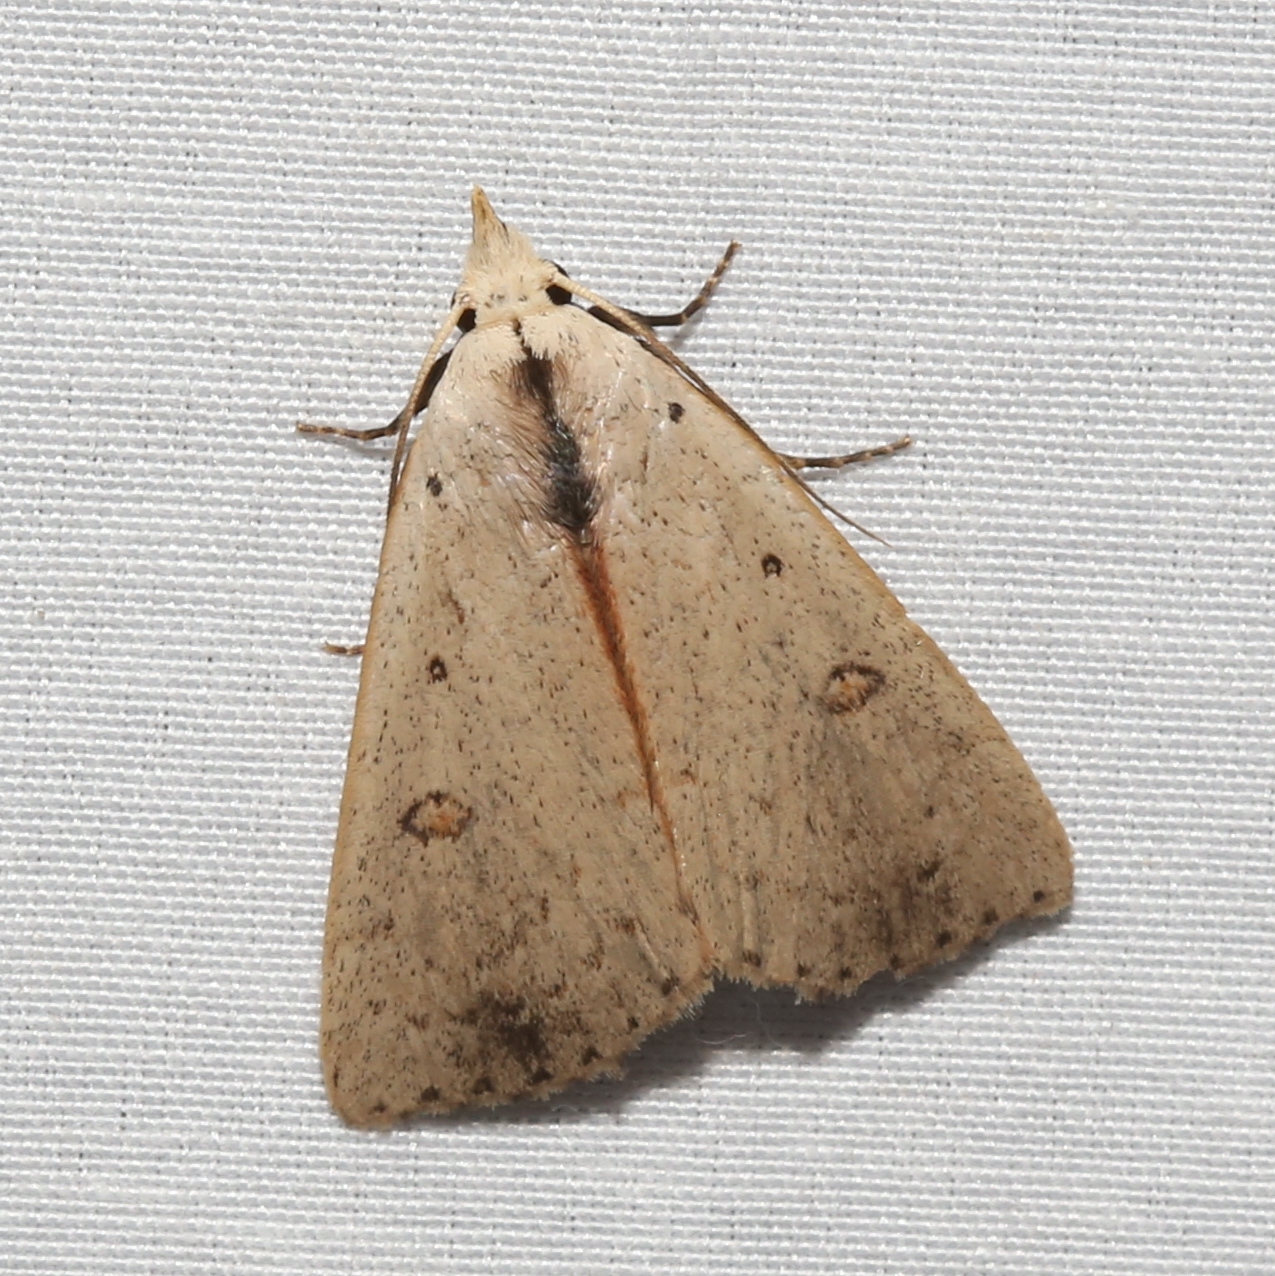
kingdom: Animalia
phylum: Arthropoda
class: Insecta
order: Lepidoptera
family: Erebidae
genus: Scolecocampa
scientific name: Scolecocampa liburna
